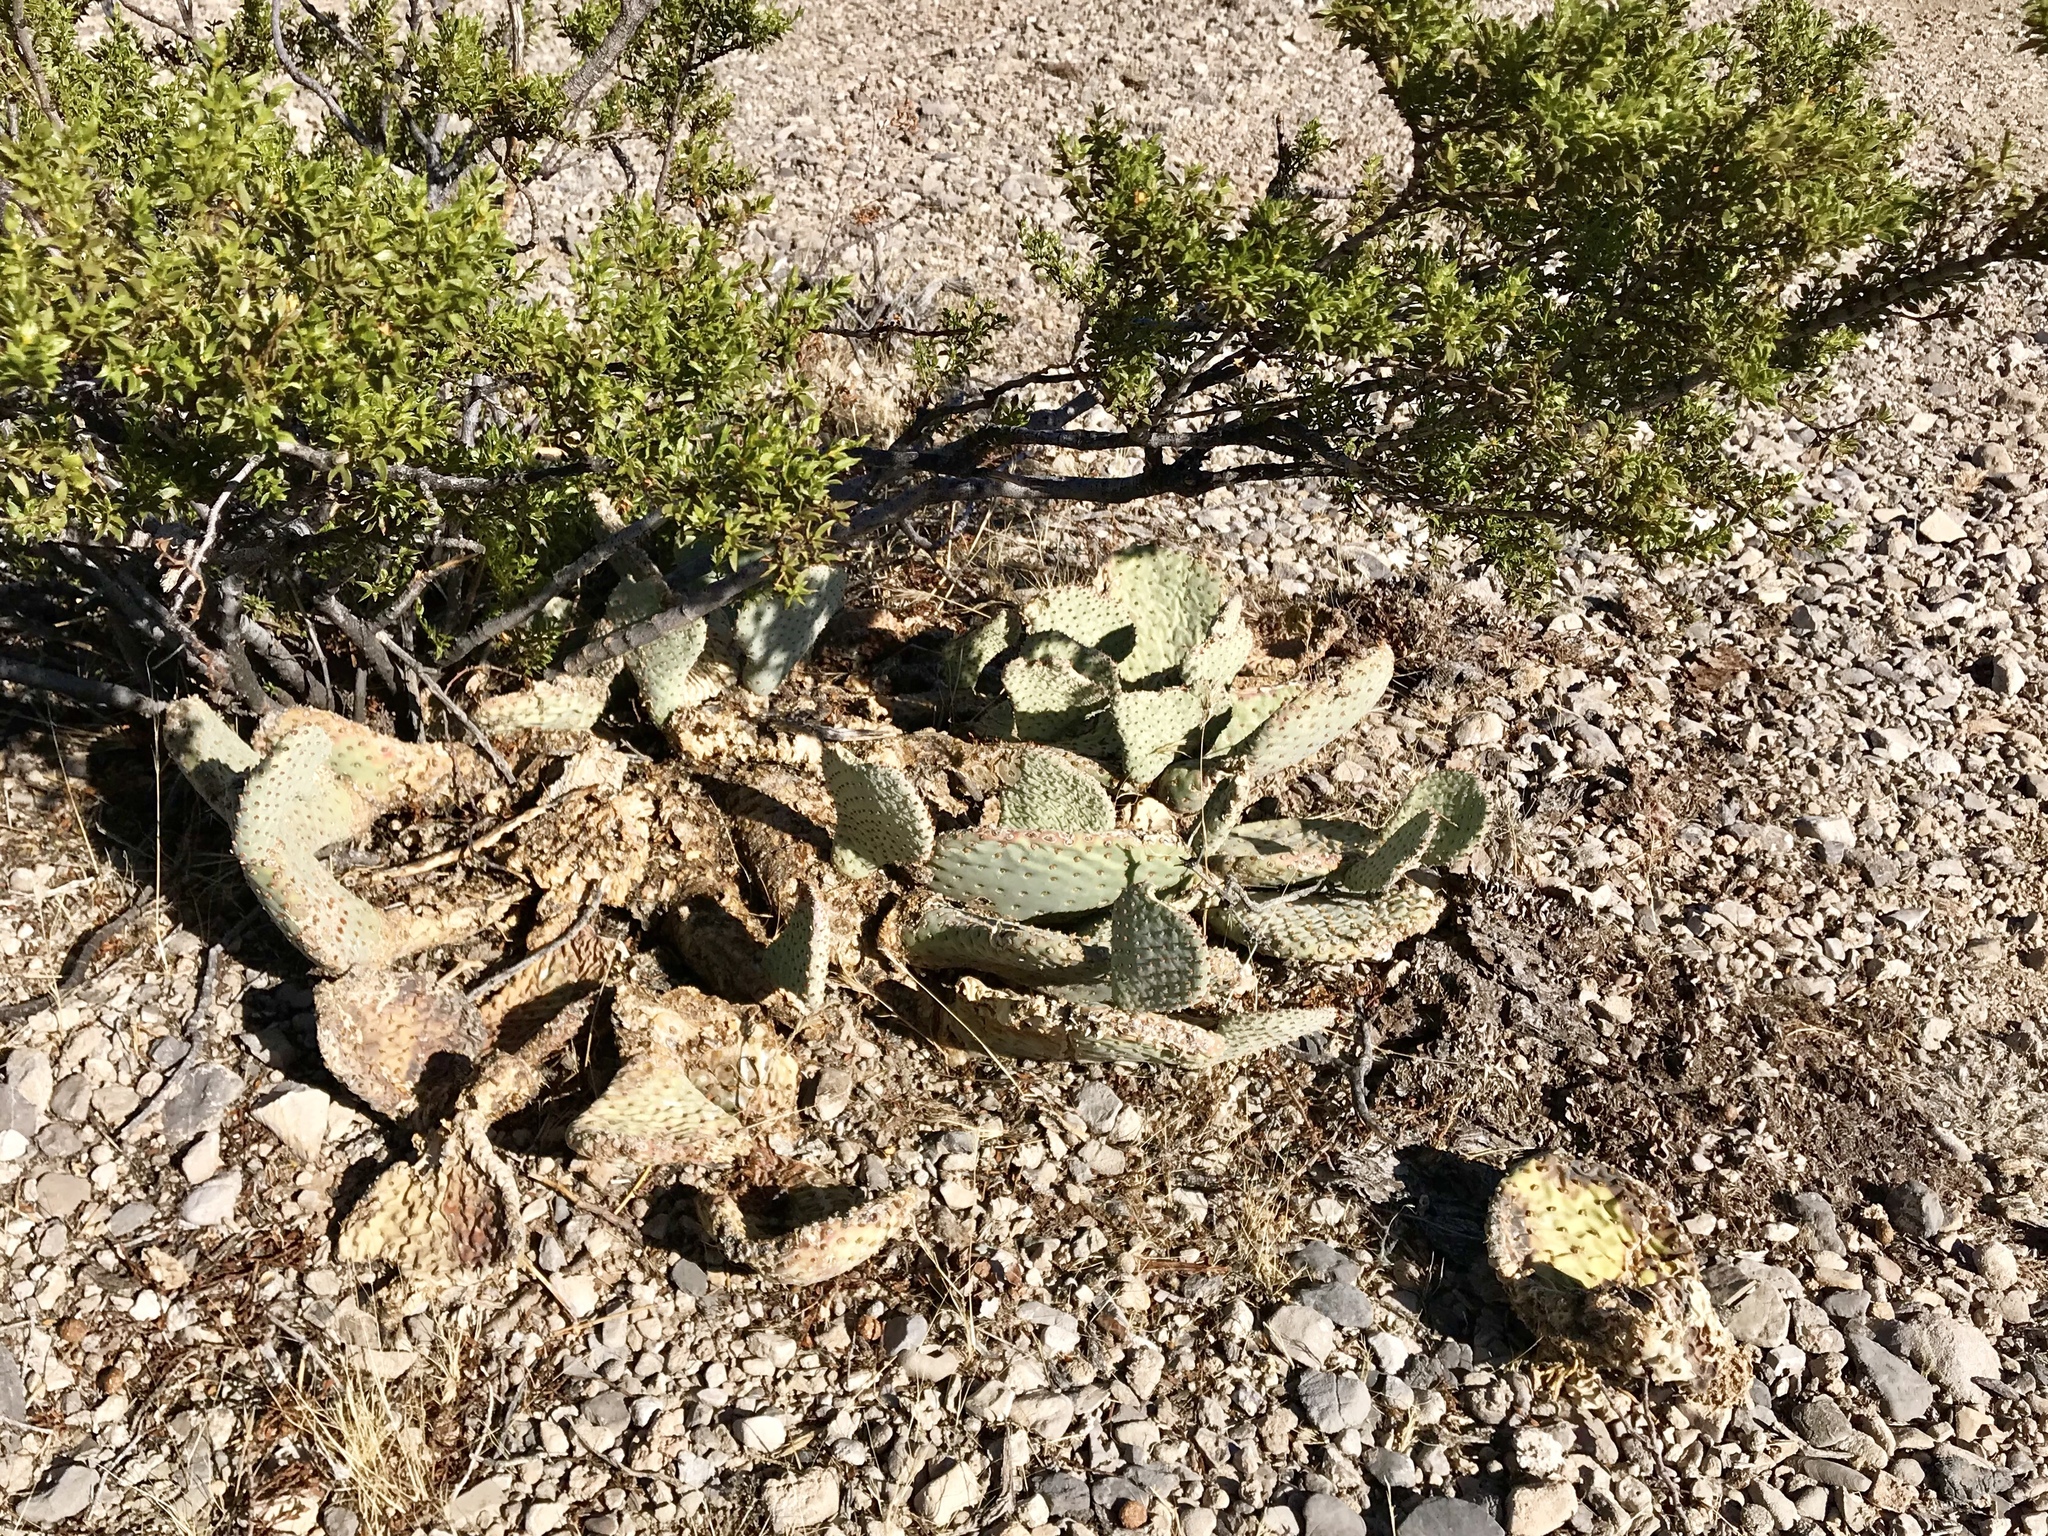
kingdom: Plantae
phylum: Tracheophyta
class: Magnoliopsida
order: Caryophyllales
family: Cactaceae
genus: Opuntia
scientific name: Opuntia basilaris
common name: Beavertail prickly-pear
